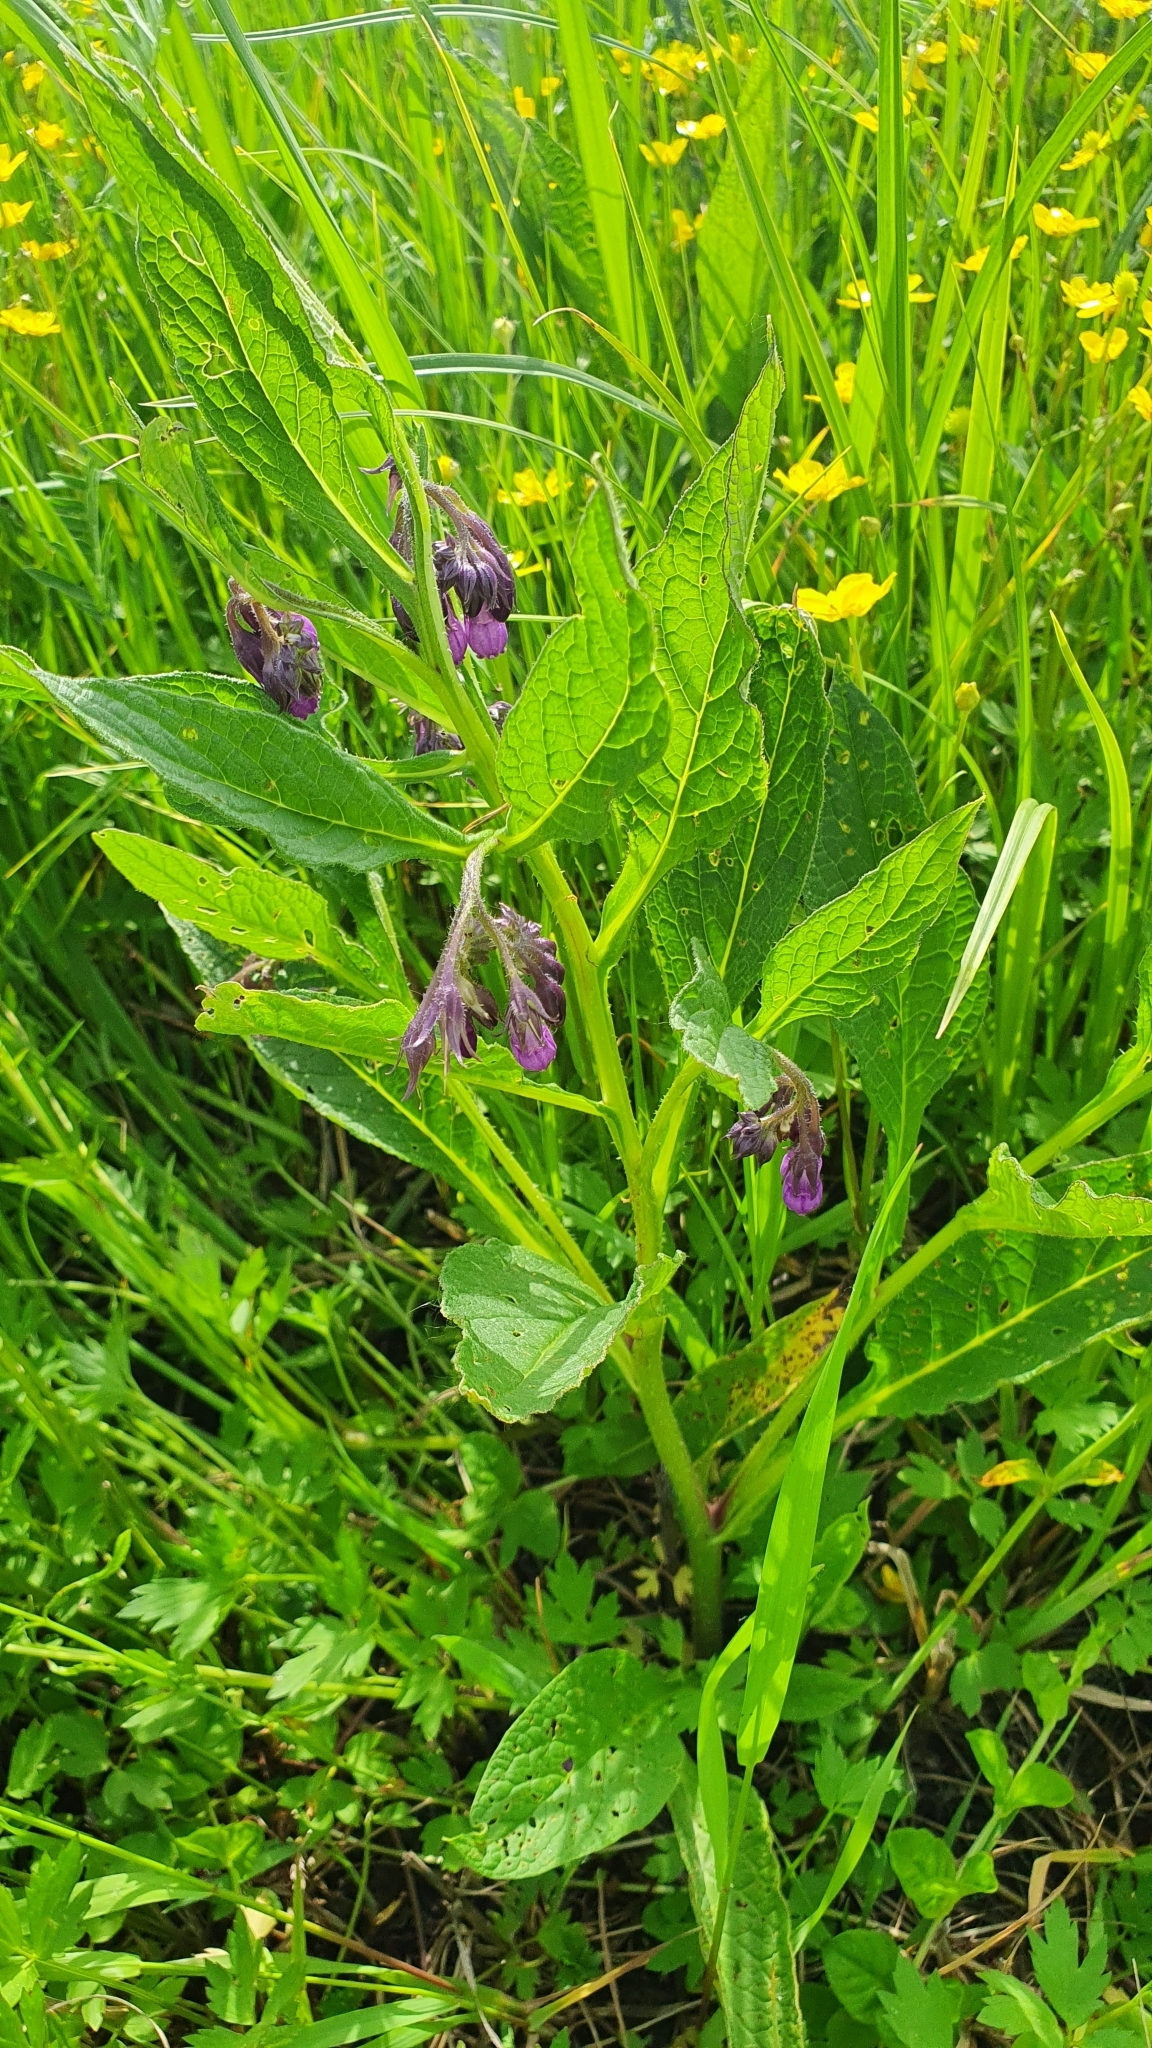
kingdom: Plantae
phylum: Tracheophyta
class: Magnoliopsida
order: Boraginales
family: Boraginaceae
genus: Symphytum
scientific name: Symphytum officinale
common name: Common comfrey
